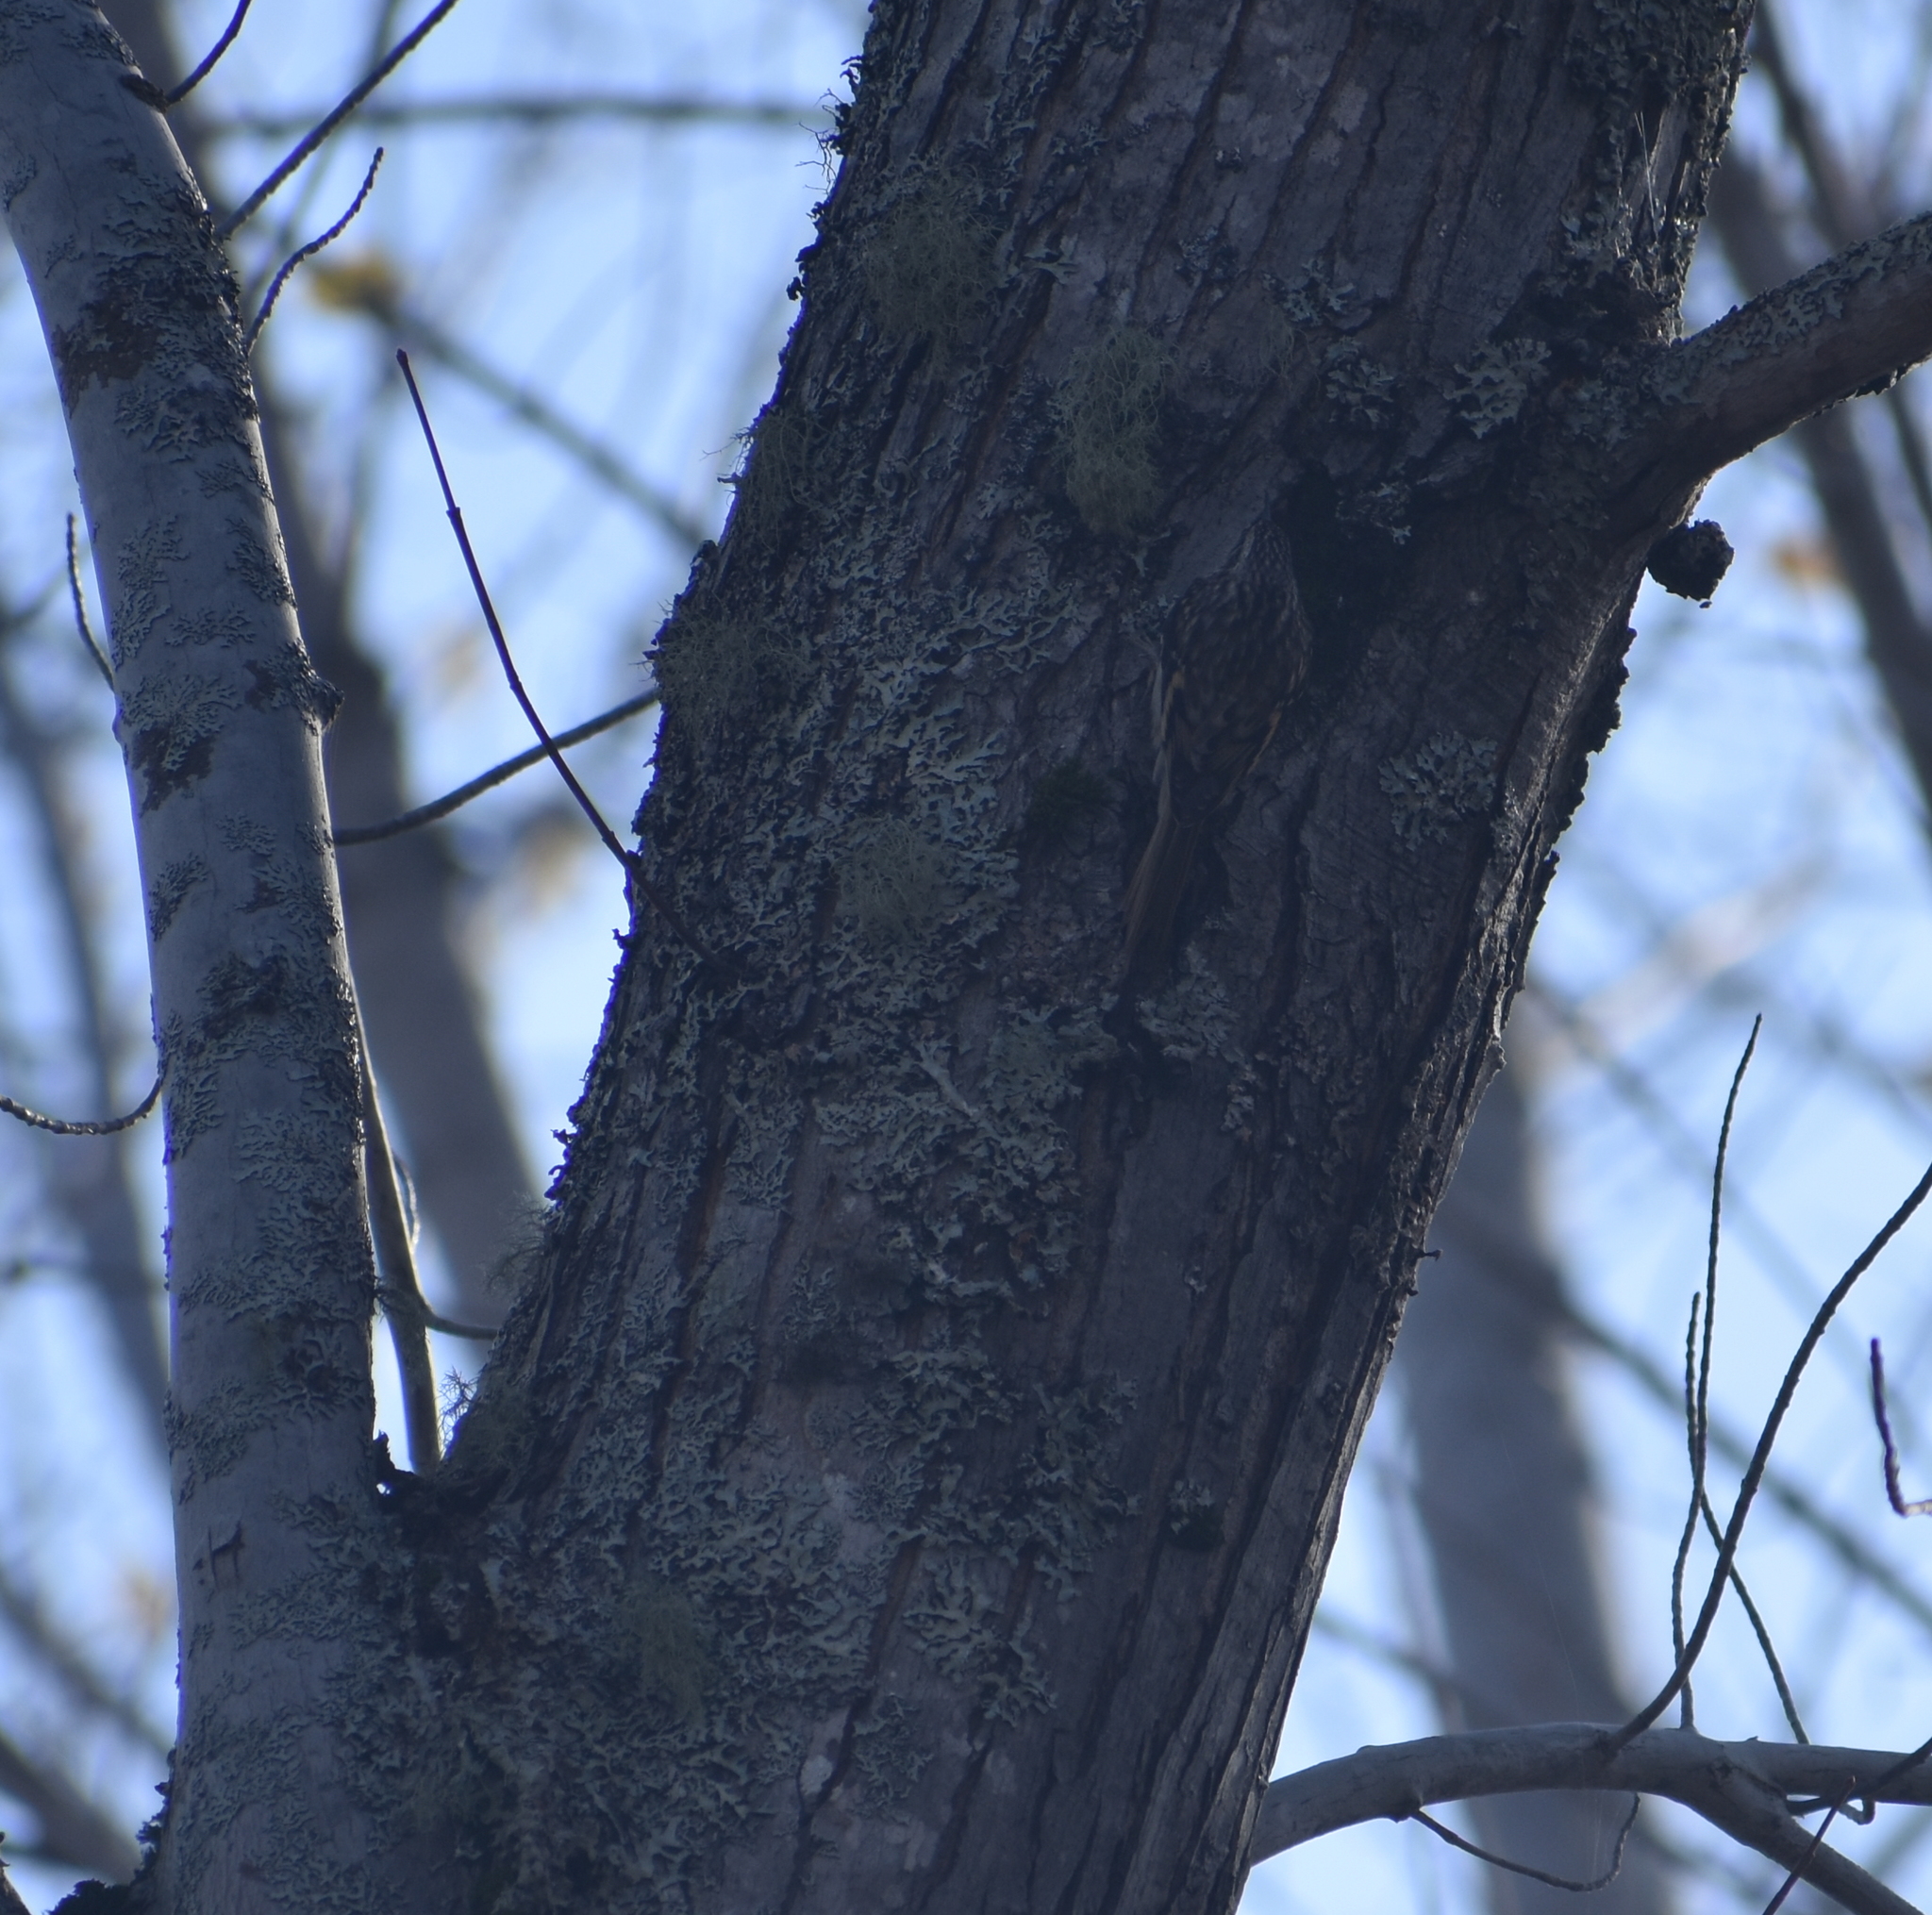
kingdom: Animalia
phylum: Chordata
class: Aves
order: Passeriformes
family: Certhiidae
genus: Certhia
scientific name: Certhia americana
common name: Brown creeper
